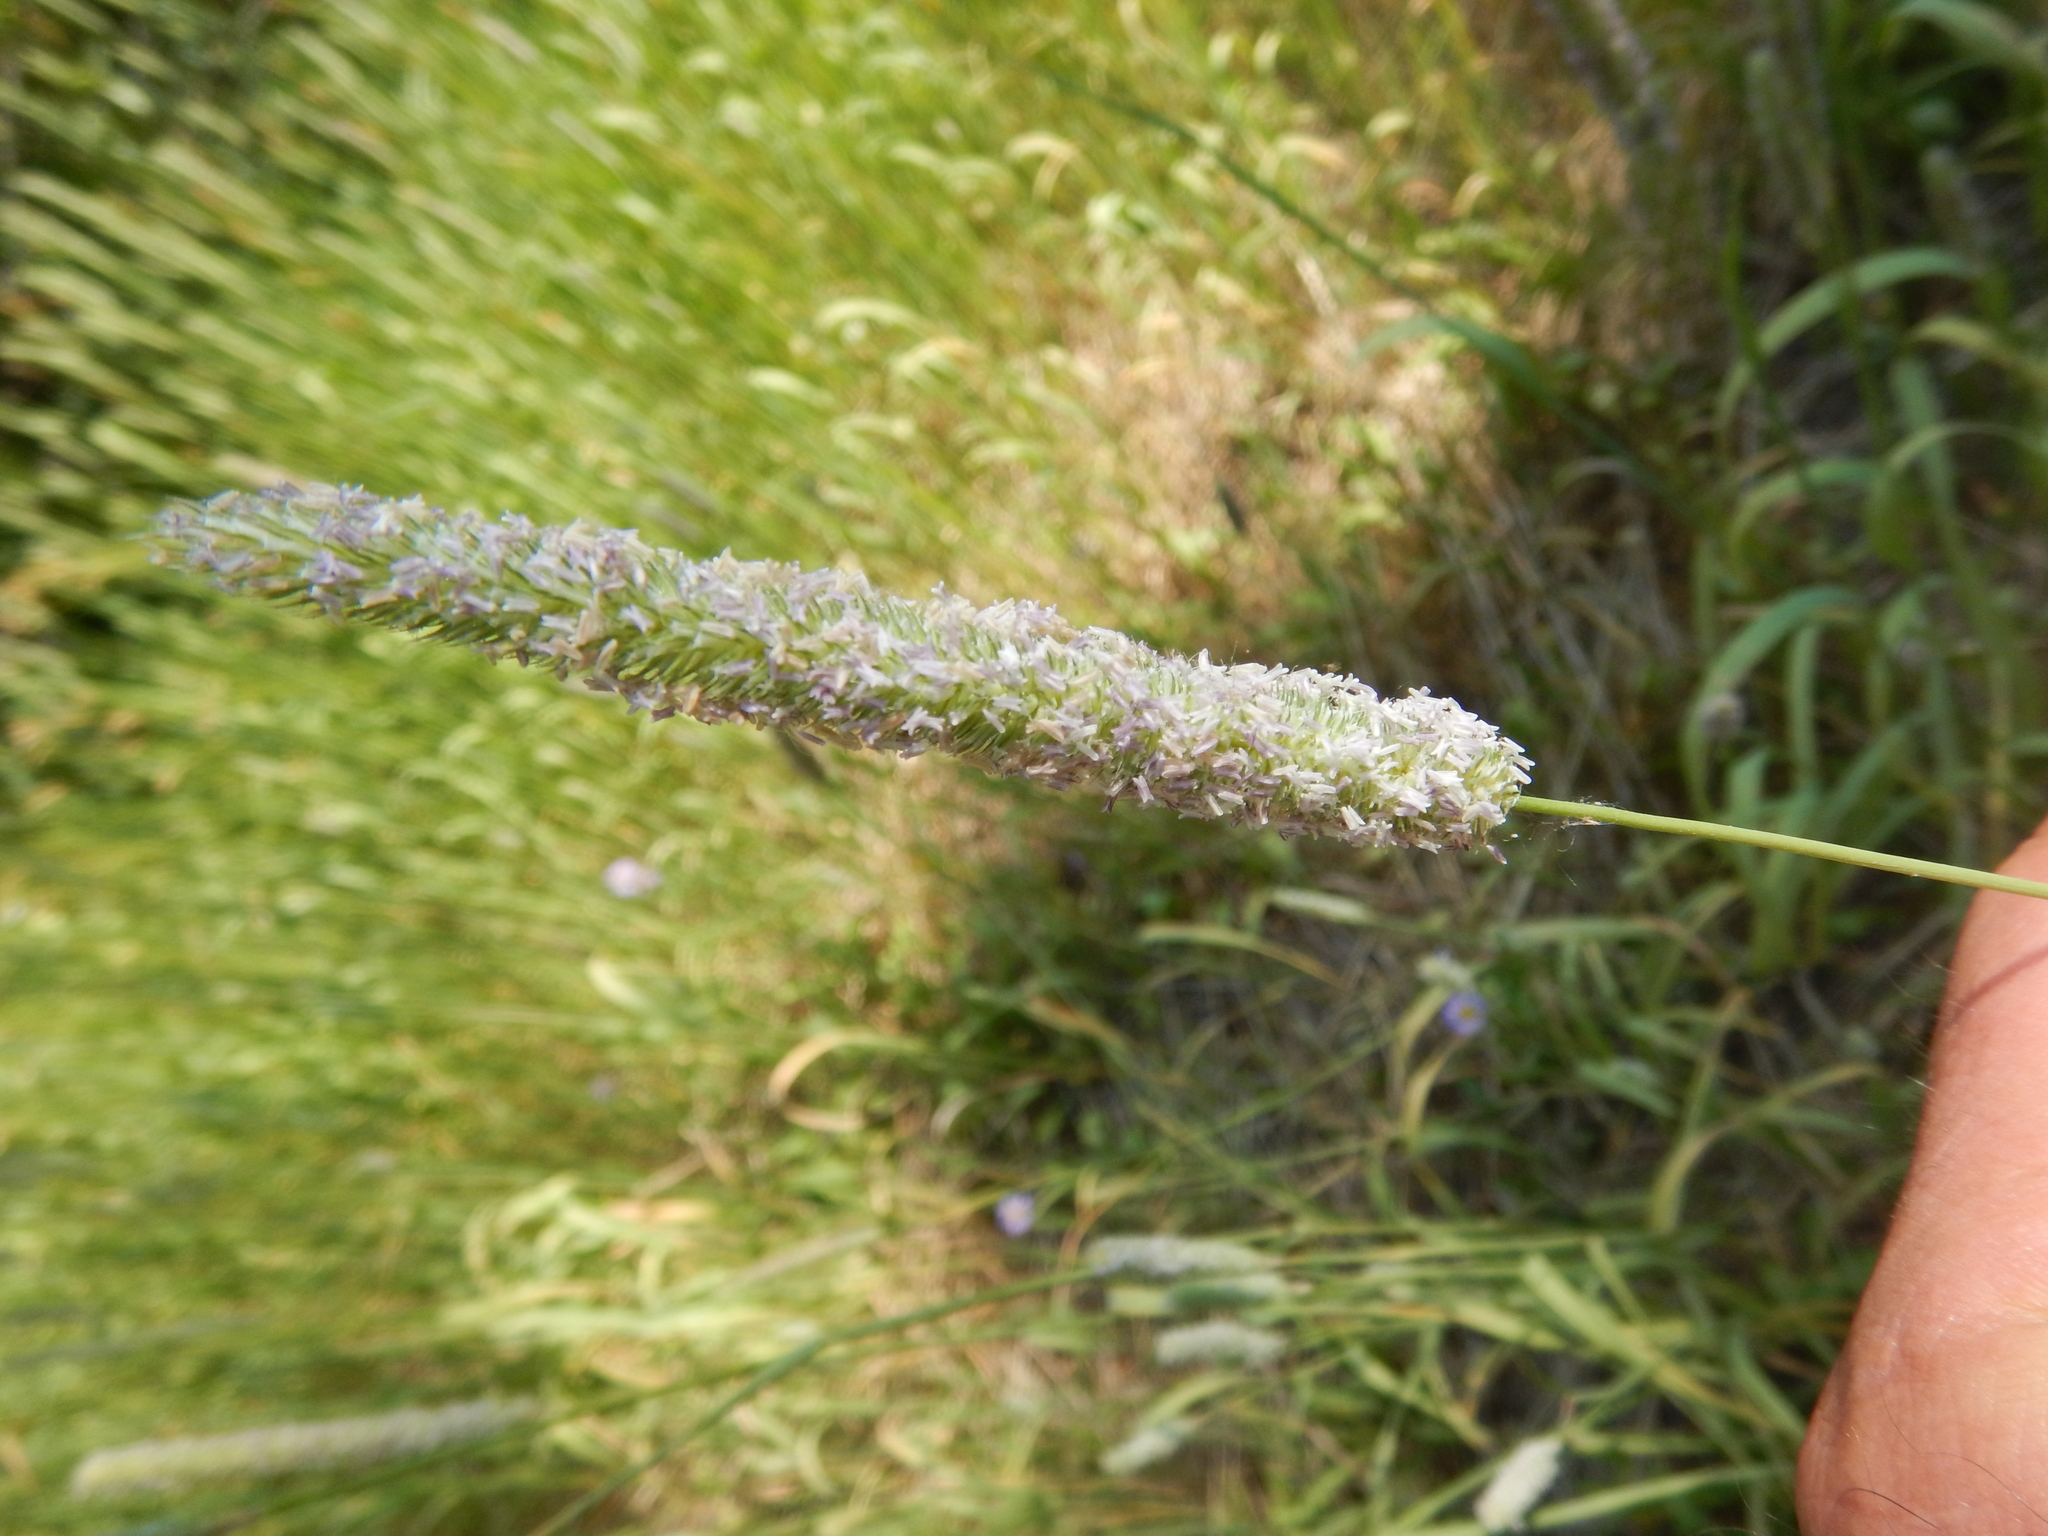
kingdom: Plantae
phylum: Tracheophyta
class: Liliopsida
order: Poales
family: Poaceae
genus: Phleum
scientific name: Phleum pratense
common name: Timothy grass
